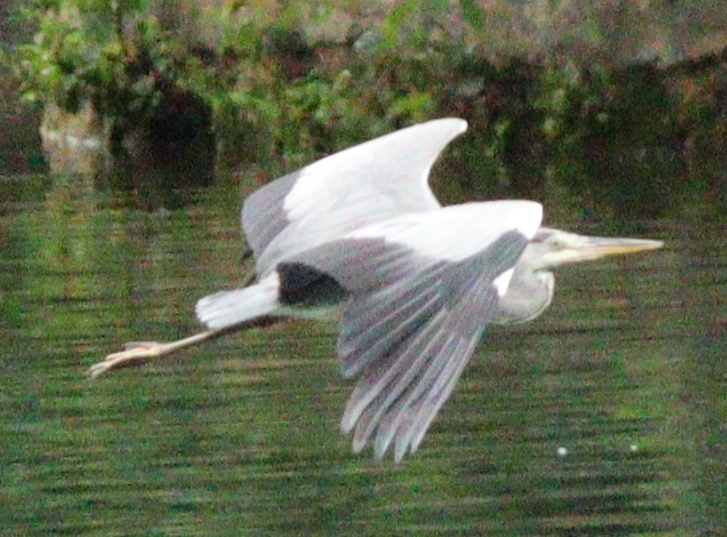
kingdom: Animalia
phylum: Chordata
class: Aves
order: Pelecaniformes
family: Ardeidae
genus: Ardea
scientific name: Ardea cinerea
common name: Grey heron
